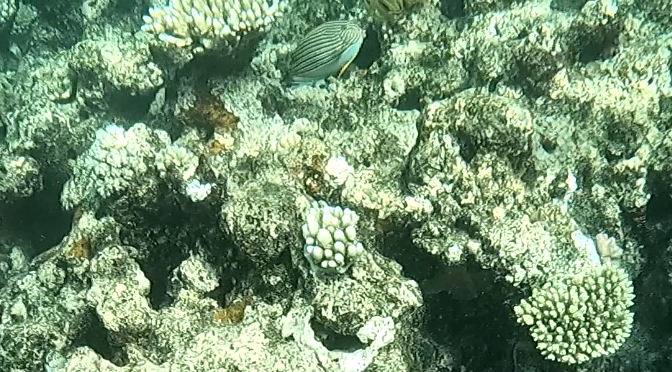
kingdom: Animalia
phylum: Chordata
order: Perciformes
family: Acanthuridae
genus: Acanthurus
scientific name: Acanthurus lineatus
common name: Striped surgeonfish
